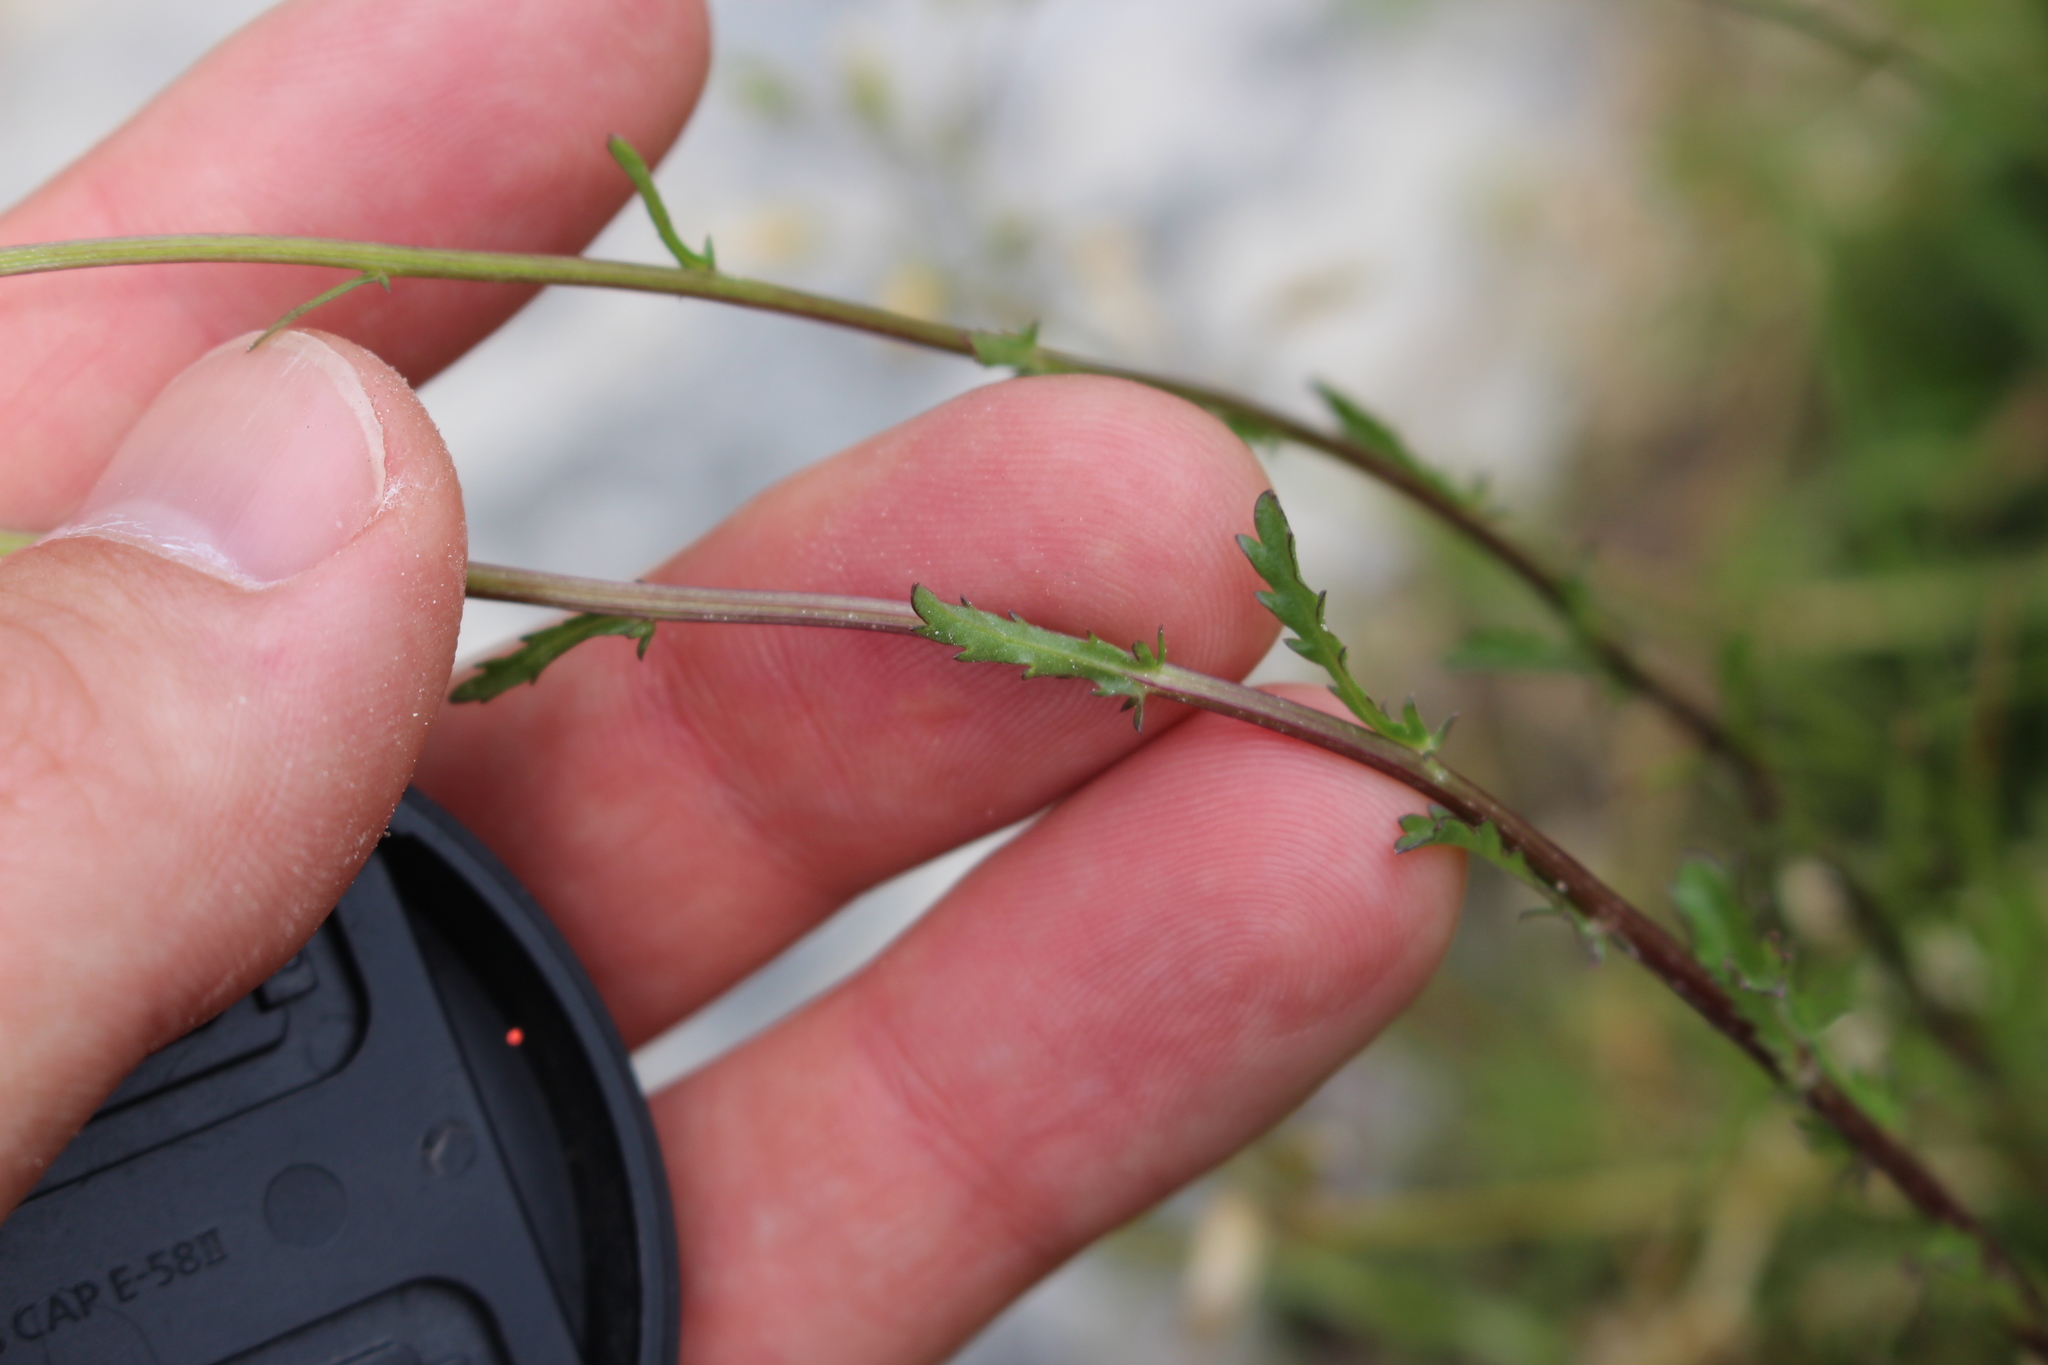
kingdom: Plantae
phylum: Tracheophyta
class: Magnoliopsida
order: Asterales
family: Asteraceae
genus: Leucanthemum
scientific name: Leucanthemum vulgare
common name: Oxeye daisy
